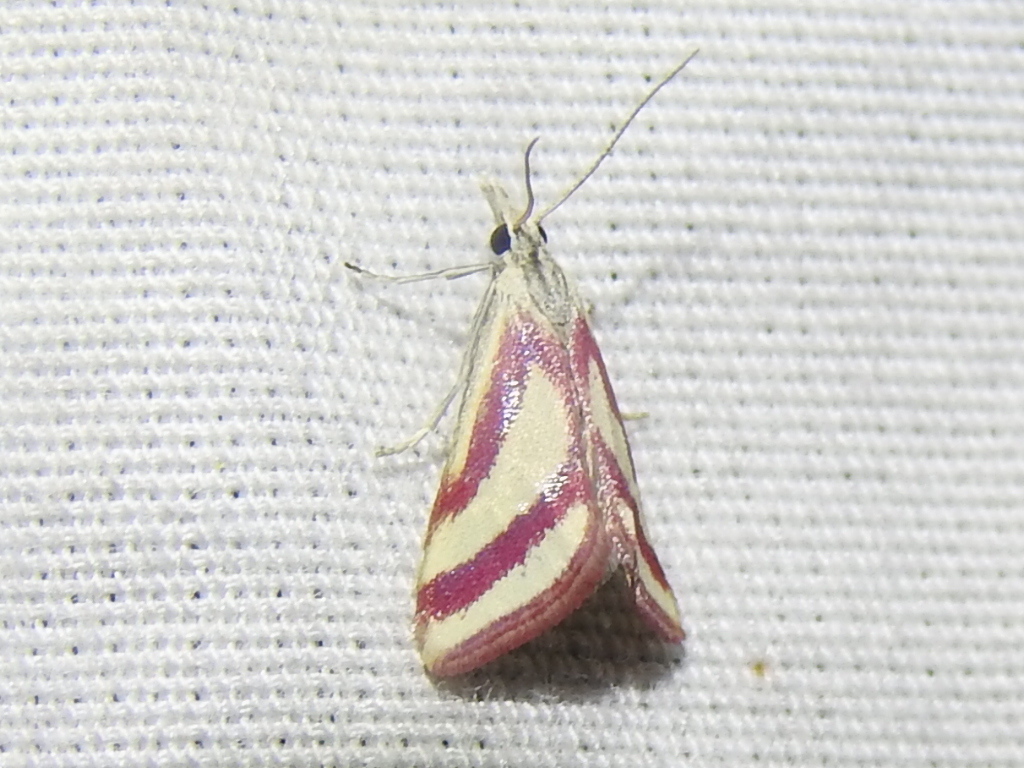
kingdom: Animalia
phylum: Arthropoda
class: Insecta
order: Lepidoptera
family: Crambidae
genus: Microtheoris
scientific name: Microtheoris vibicalis
